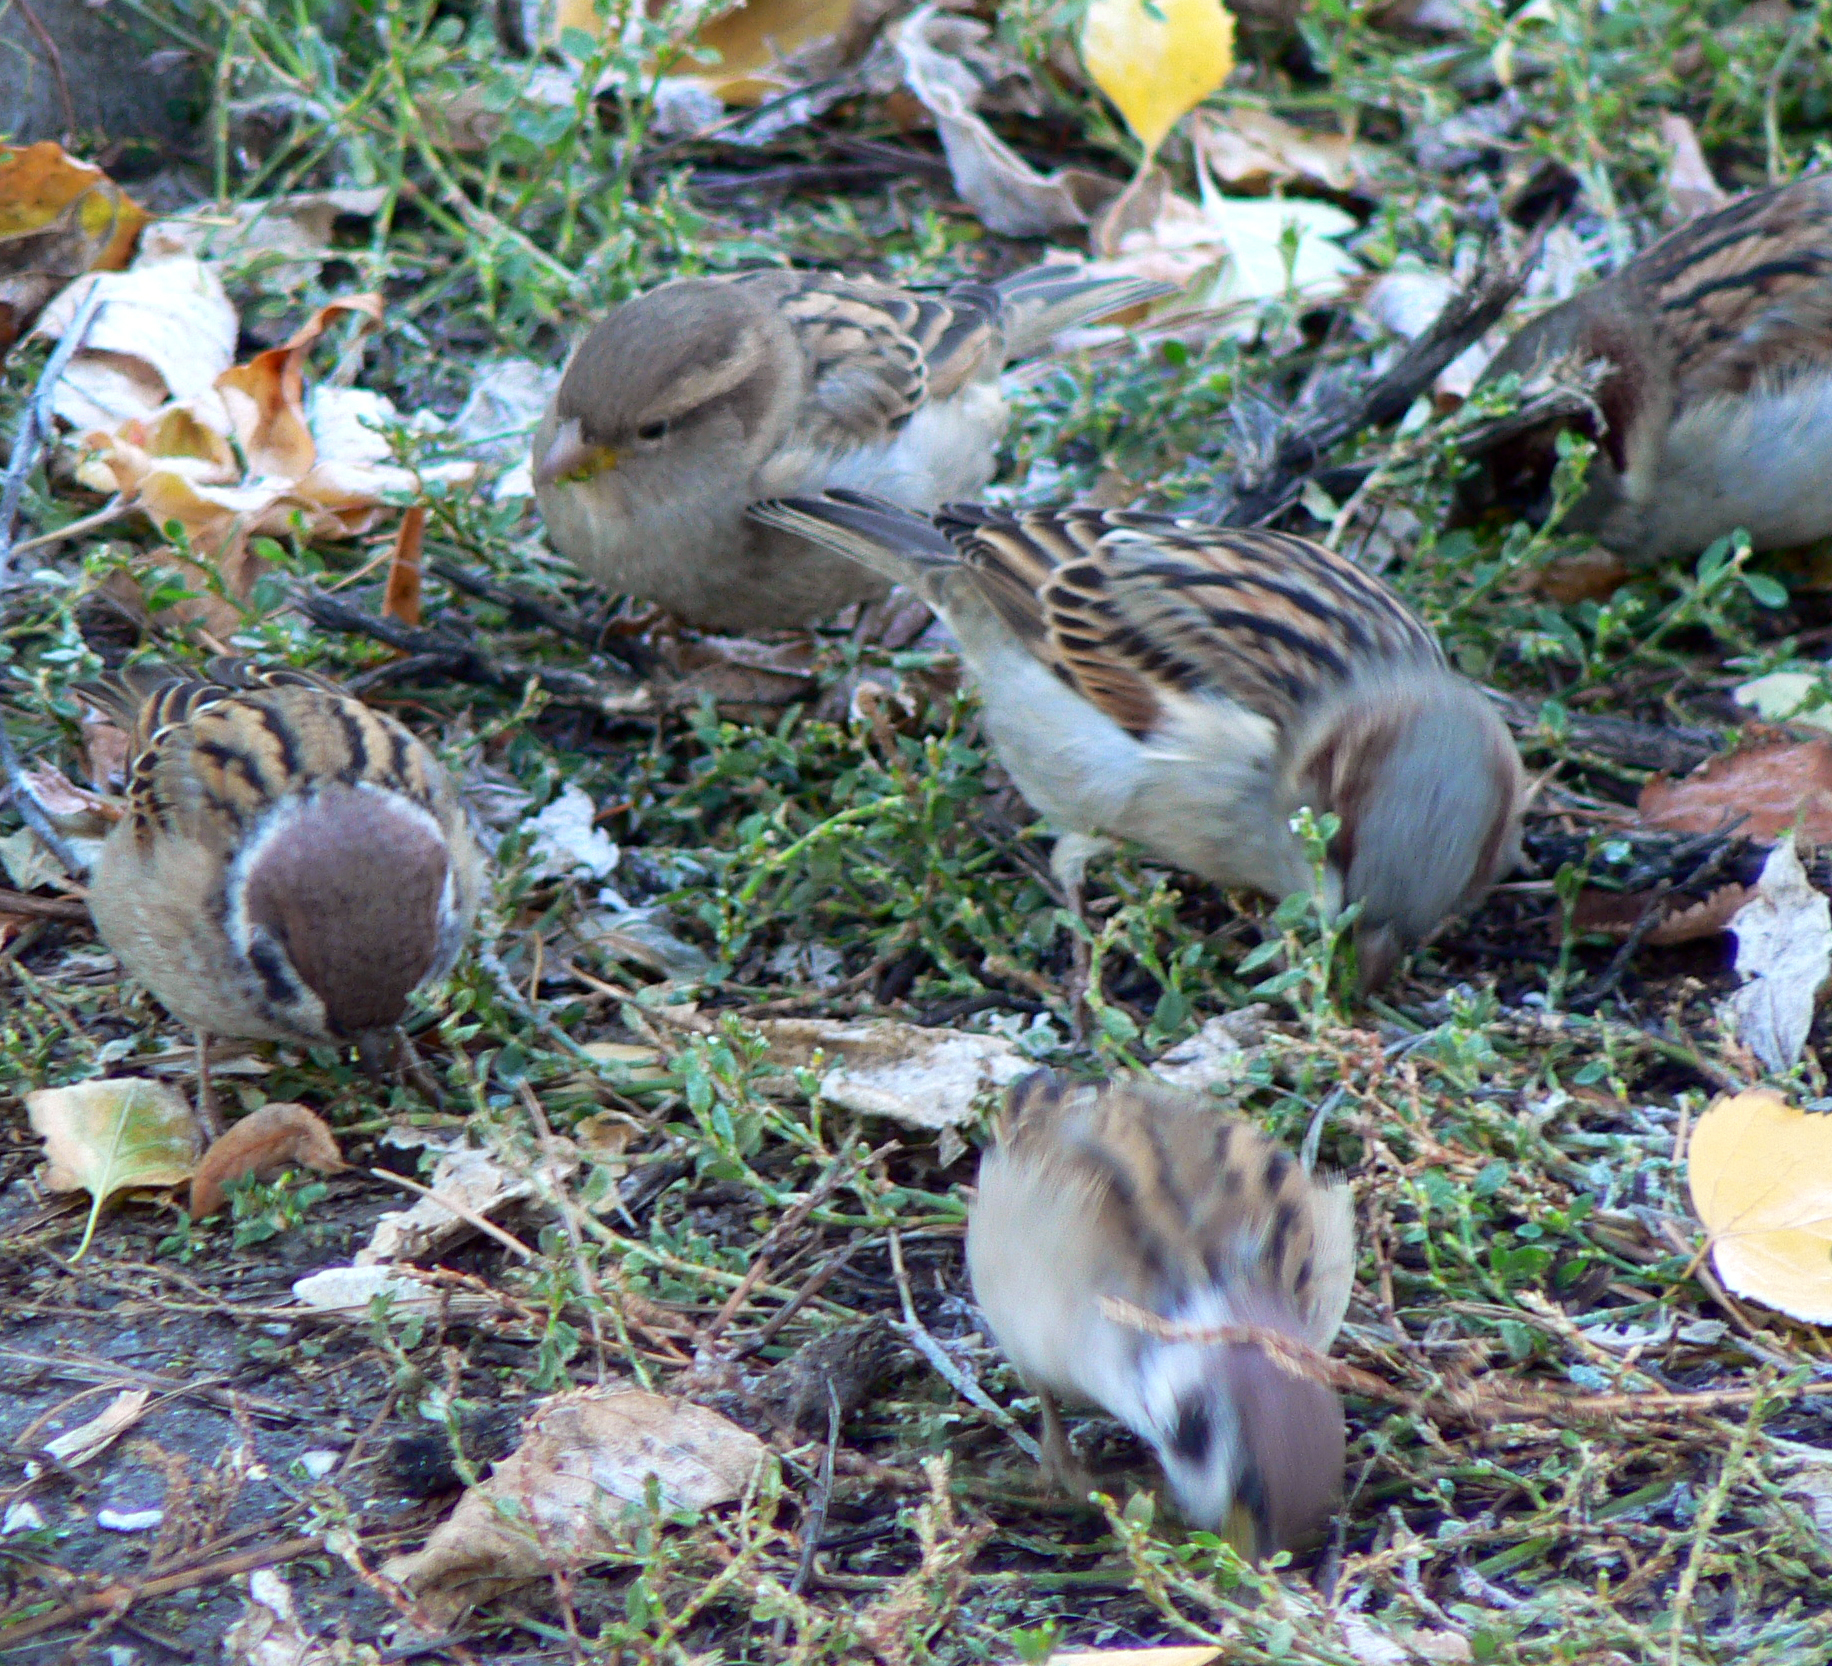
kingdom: Animalia
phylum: Chordata
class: Aves
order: Passeriformes
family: Passeridae
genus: Passer
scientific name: Passer domesticus
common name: House sparrow
